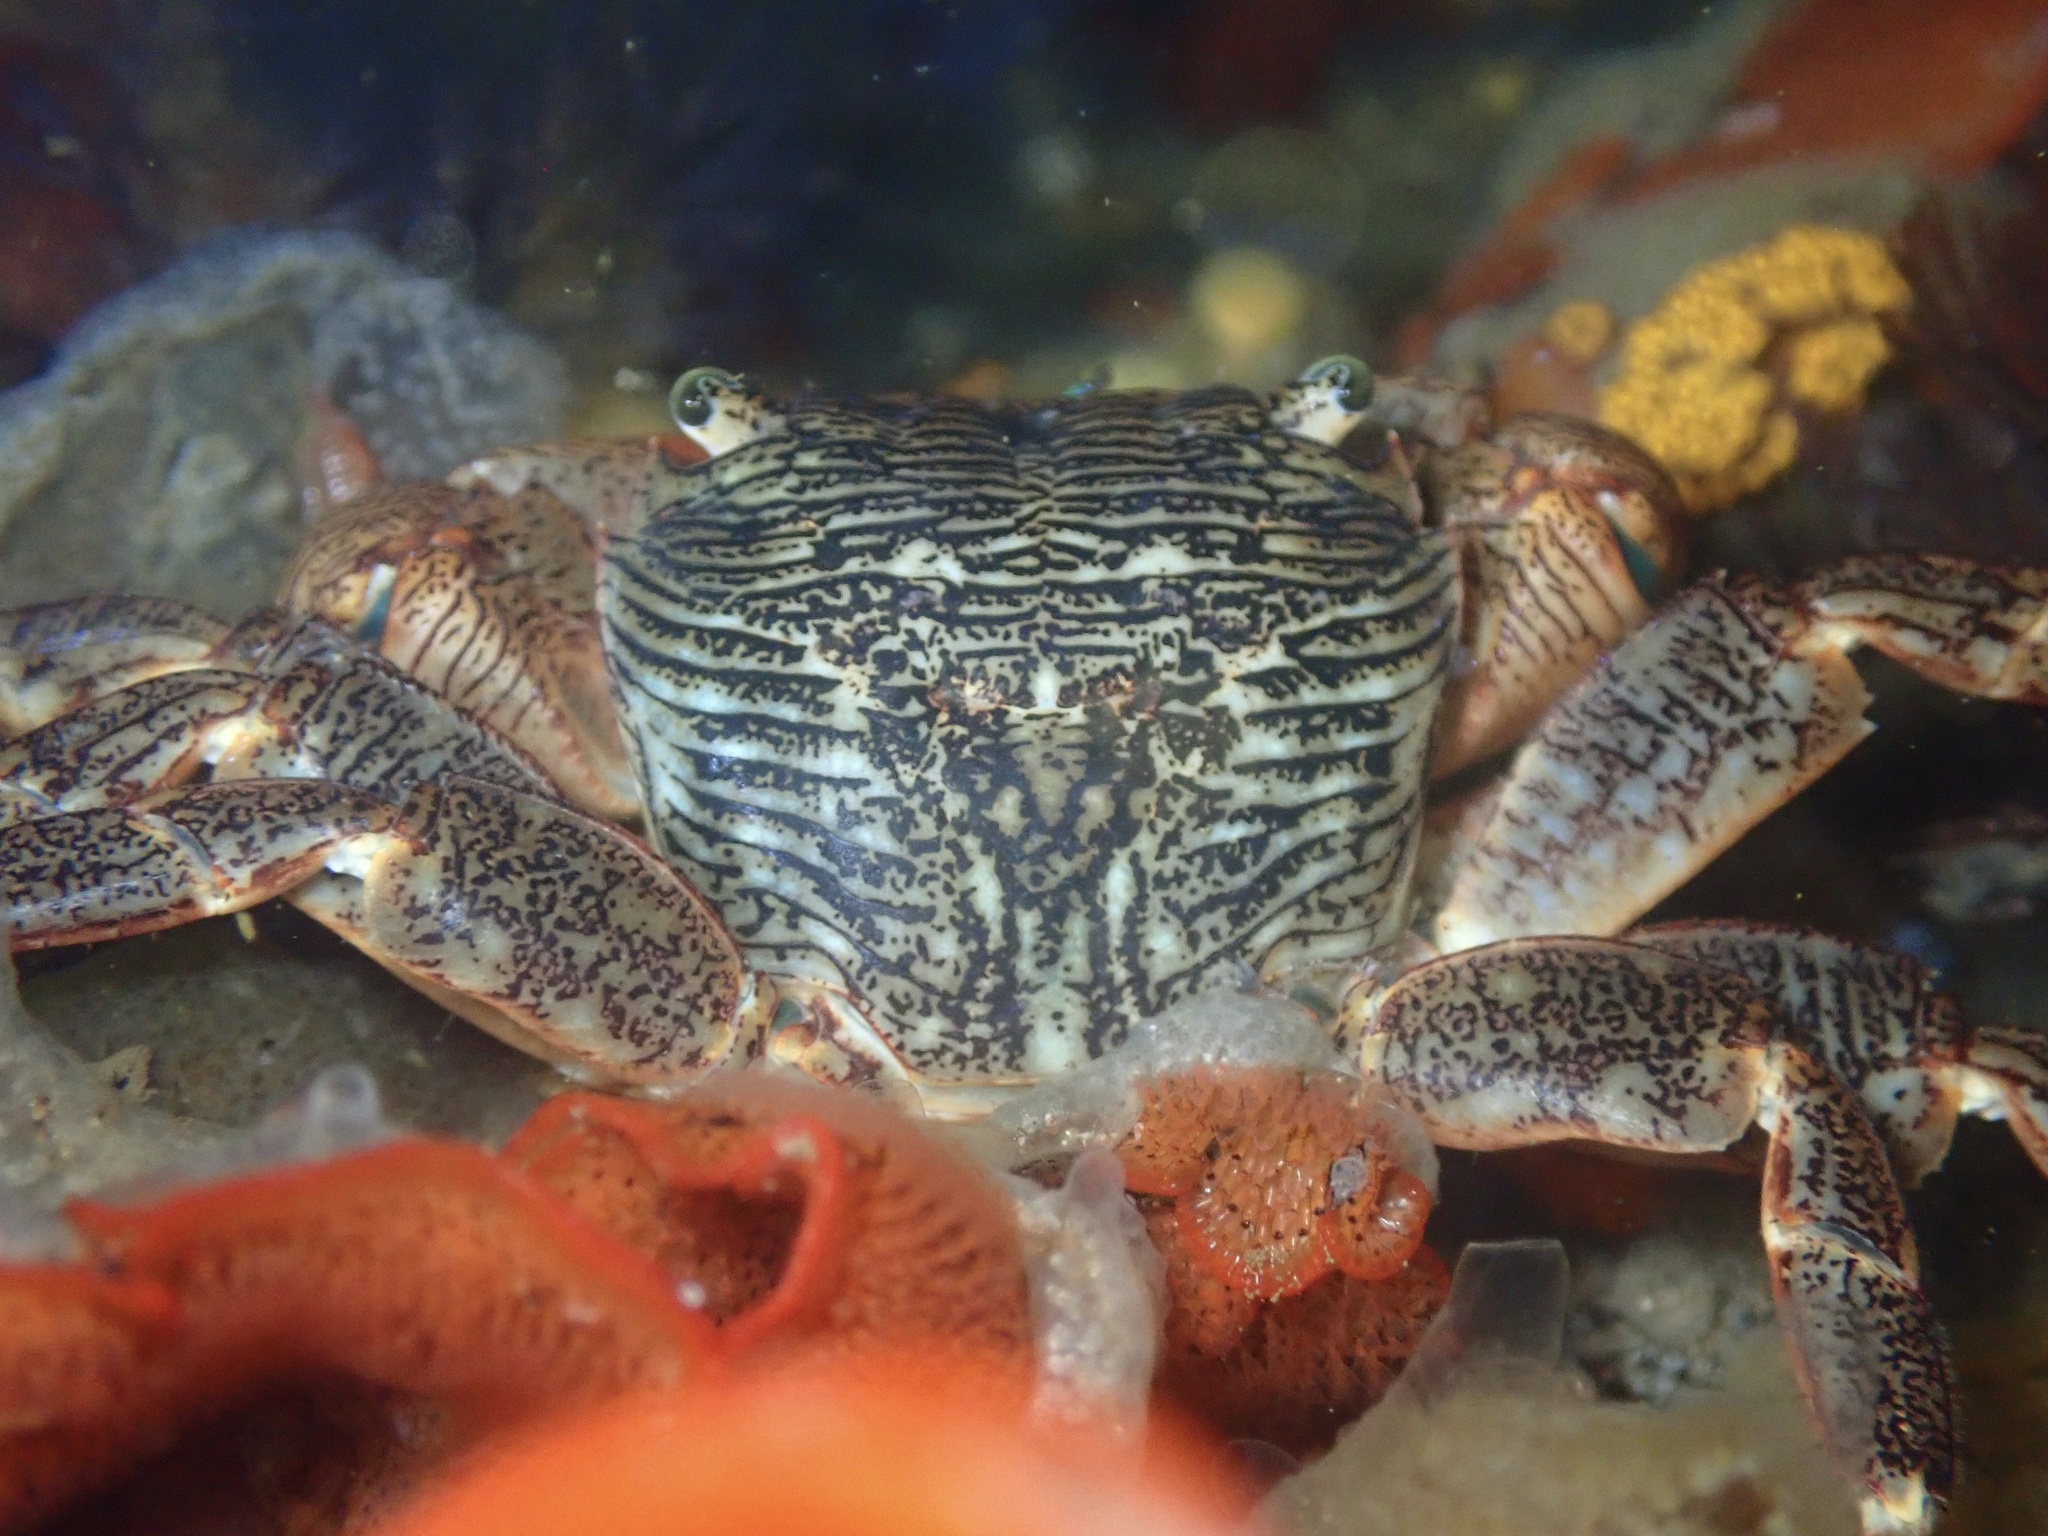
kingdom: Animalia
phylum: Arthropoda
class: Malacostraca
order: Decapoda
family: Grapsidae
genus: Pachygrapsus
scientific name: Pachygrapsus crassipes
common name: Striped shore crab
